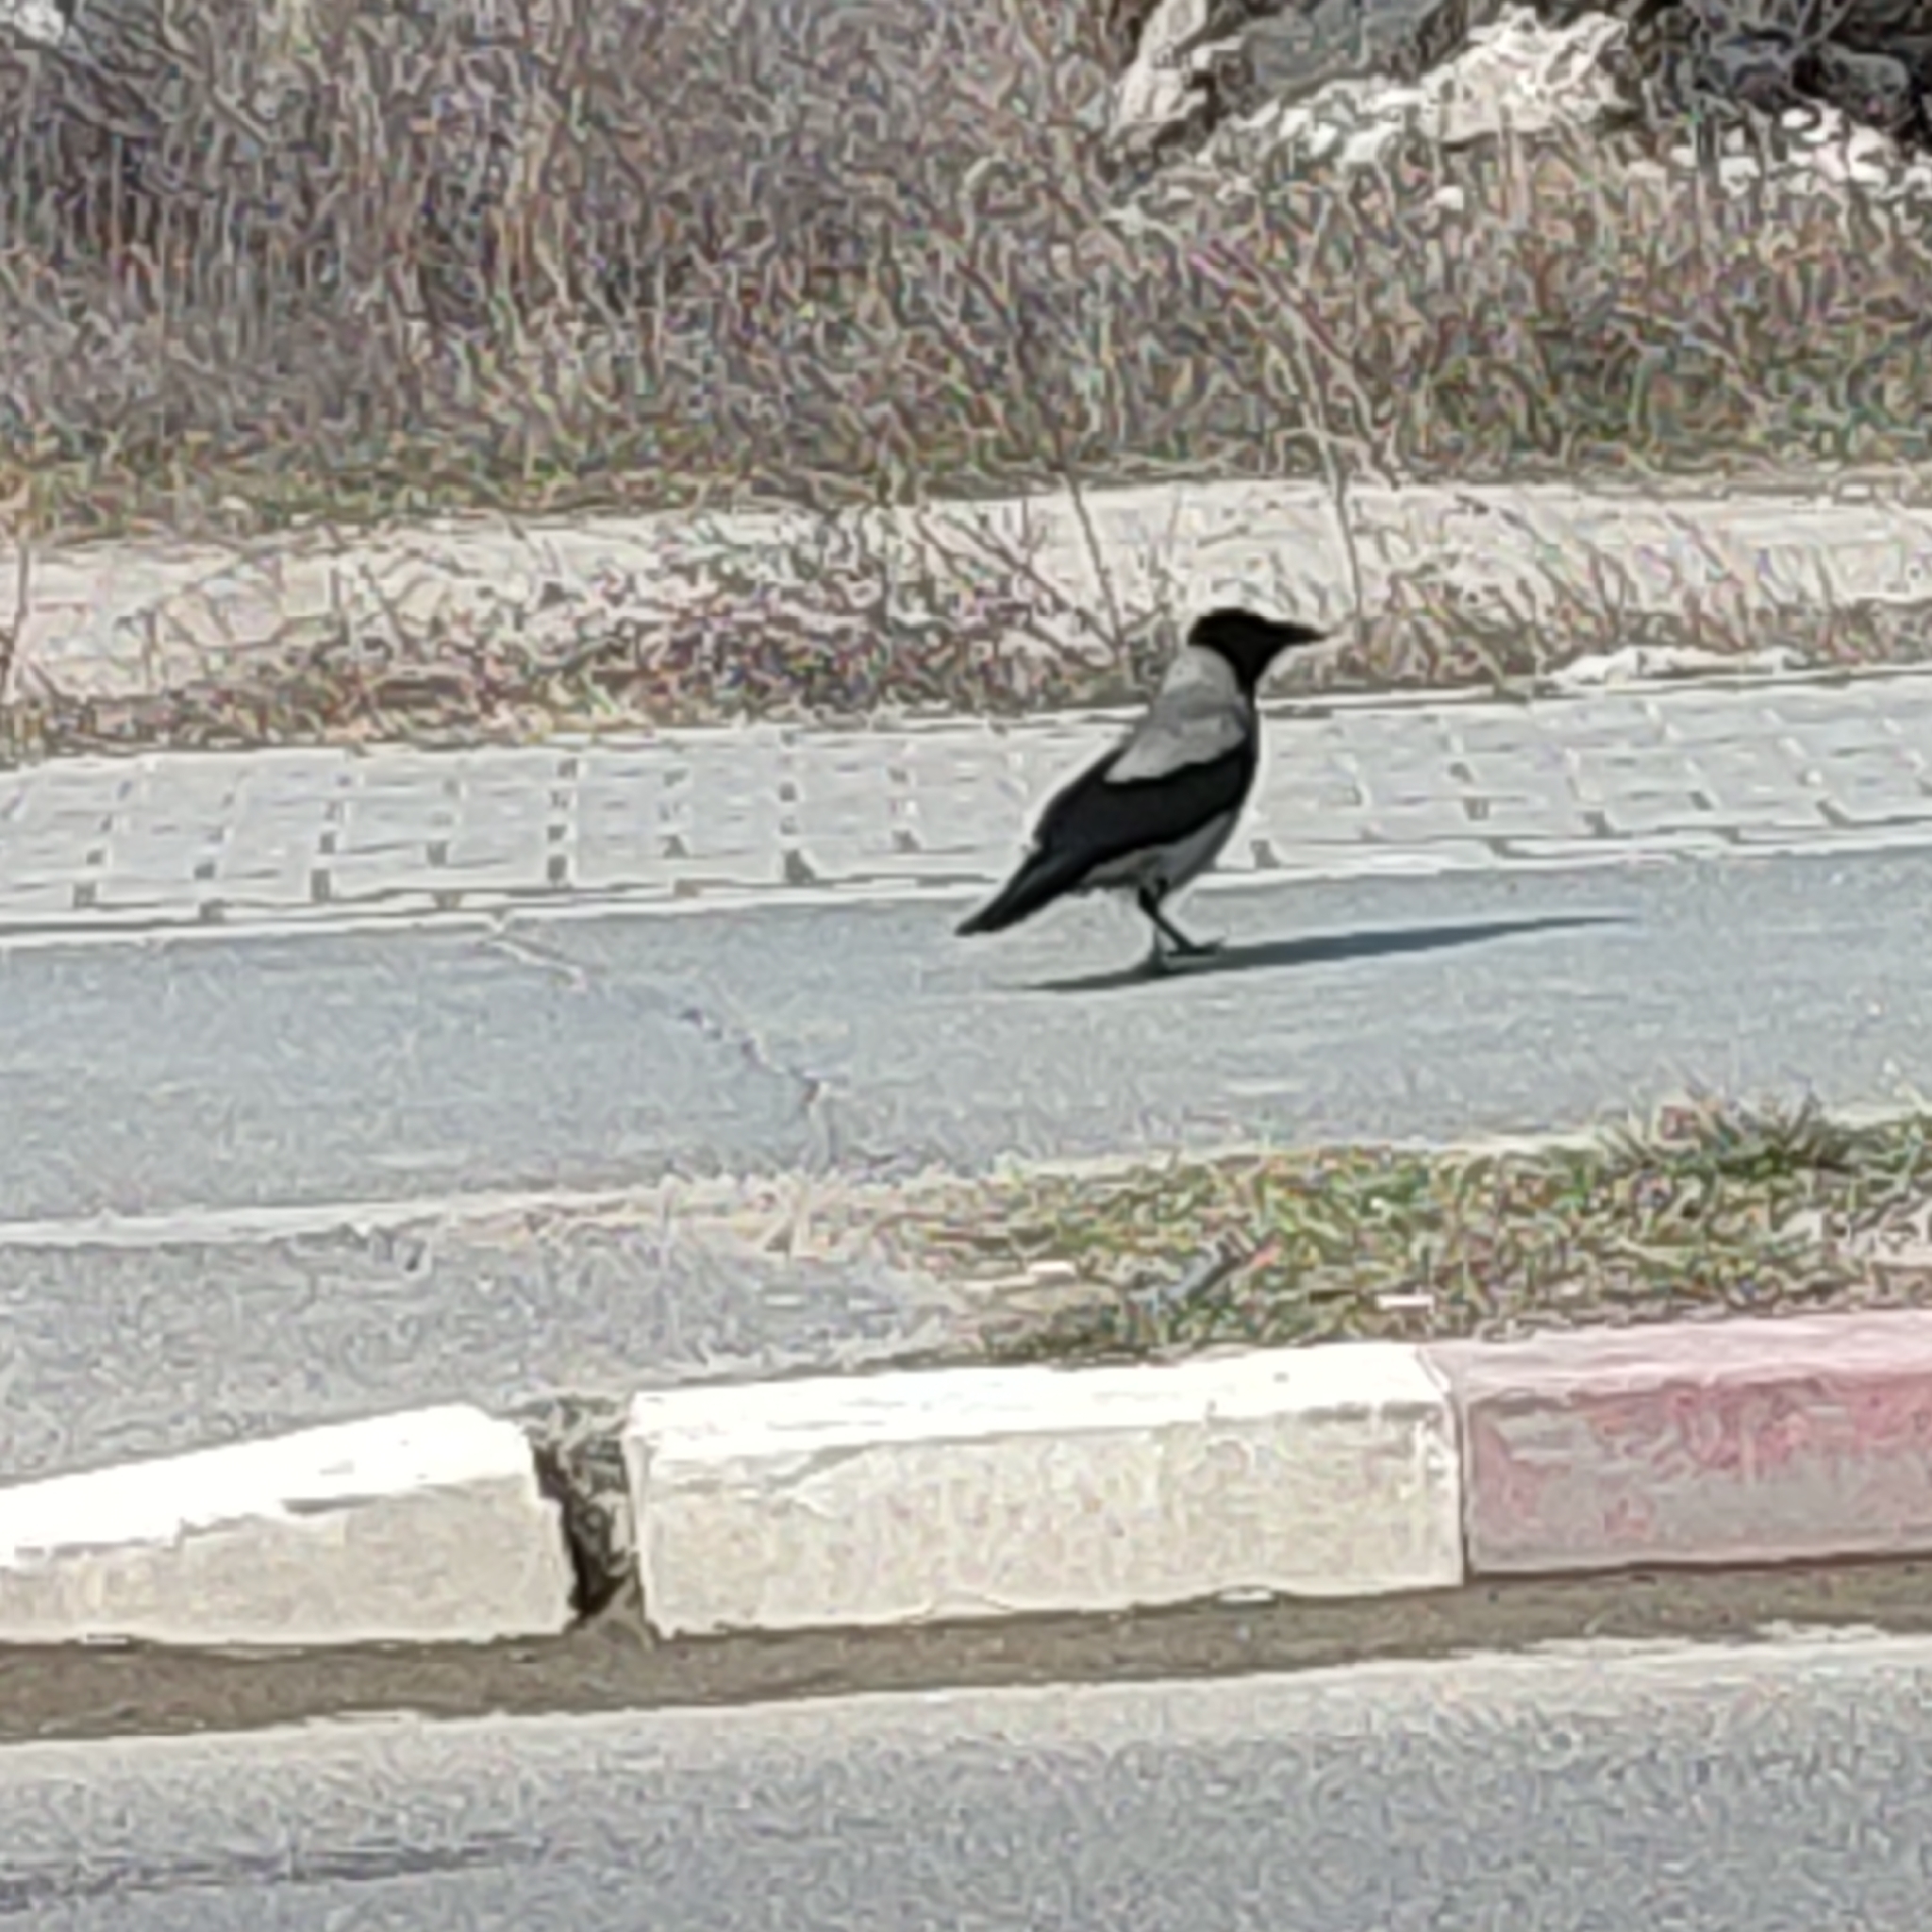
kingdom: Animalia
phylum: Chordata
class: Aves
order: Passeriformes
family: Corvidae
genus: Corvus
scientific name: Corvus cornix
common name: Hooded crow
